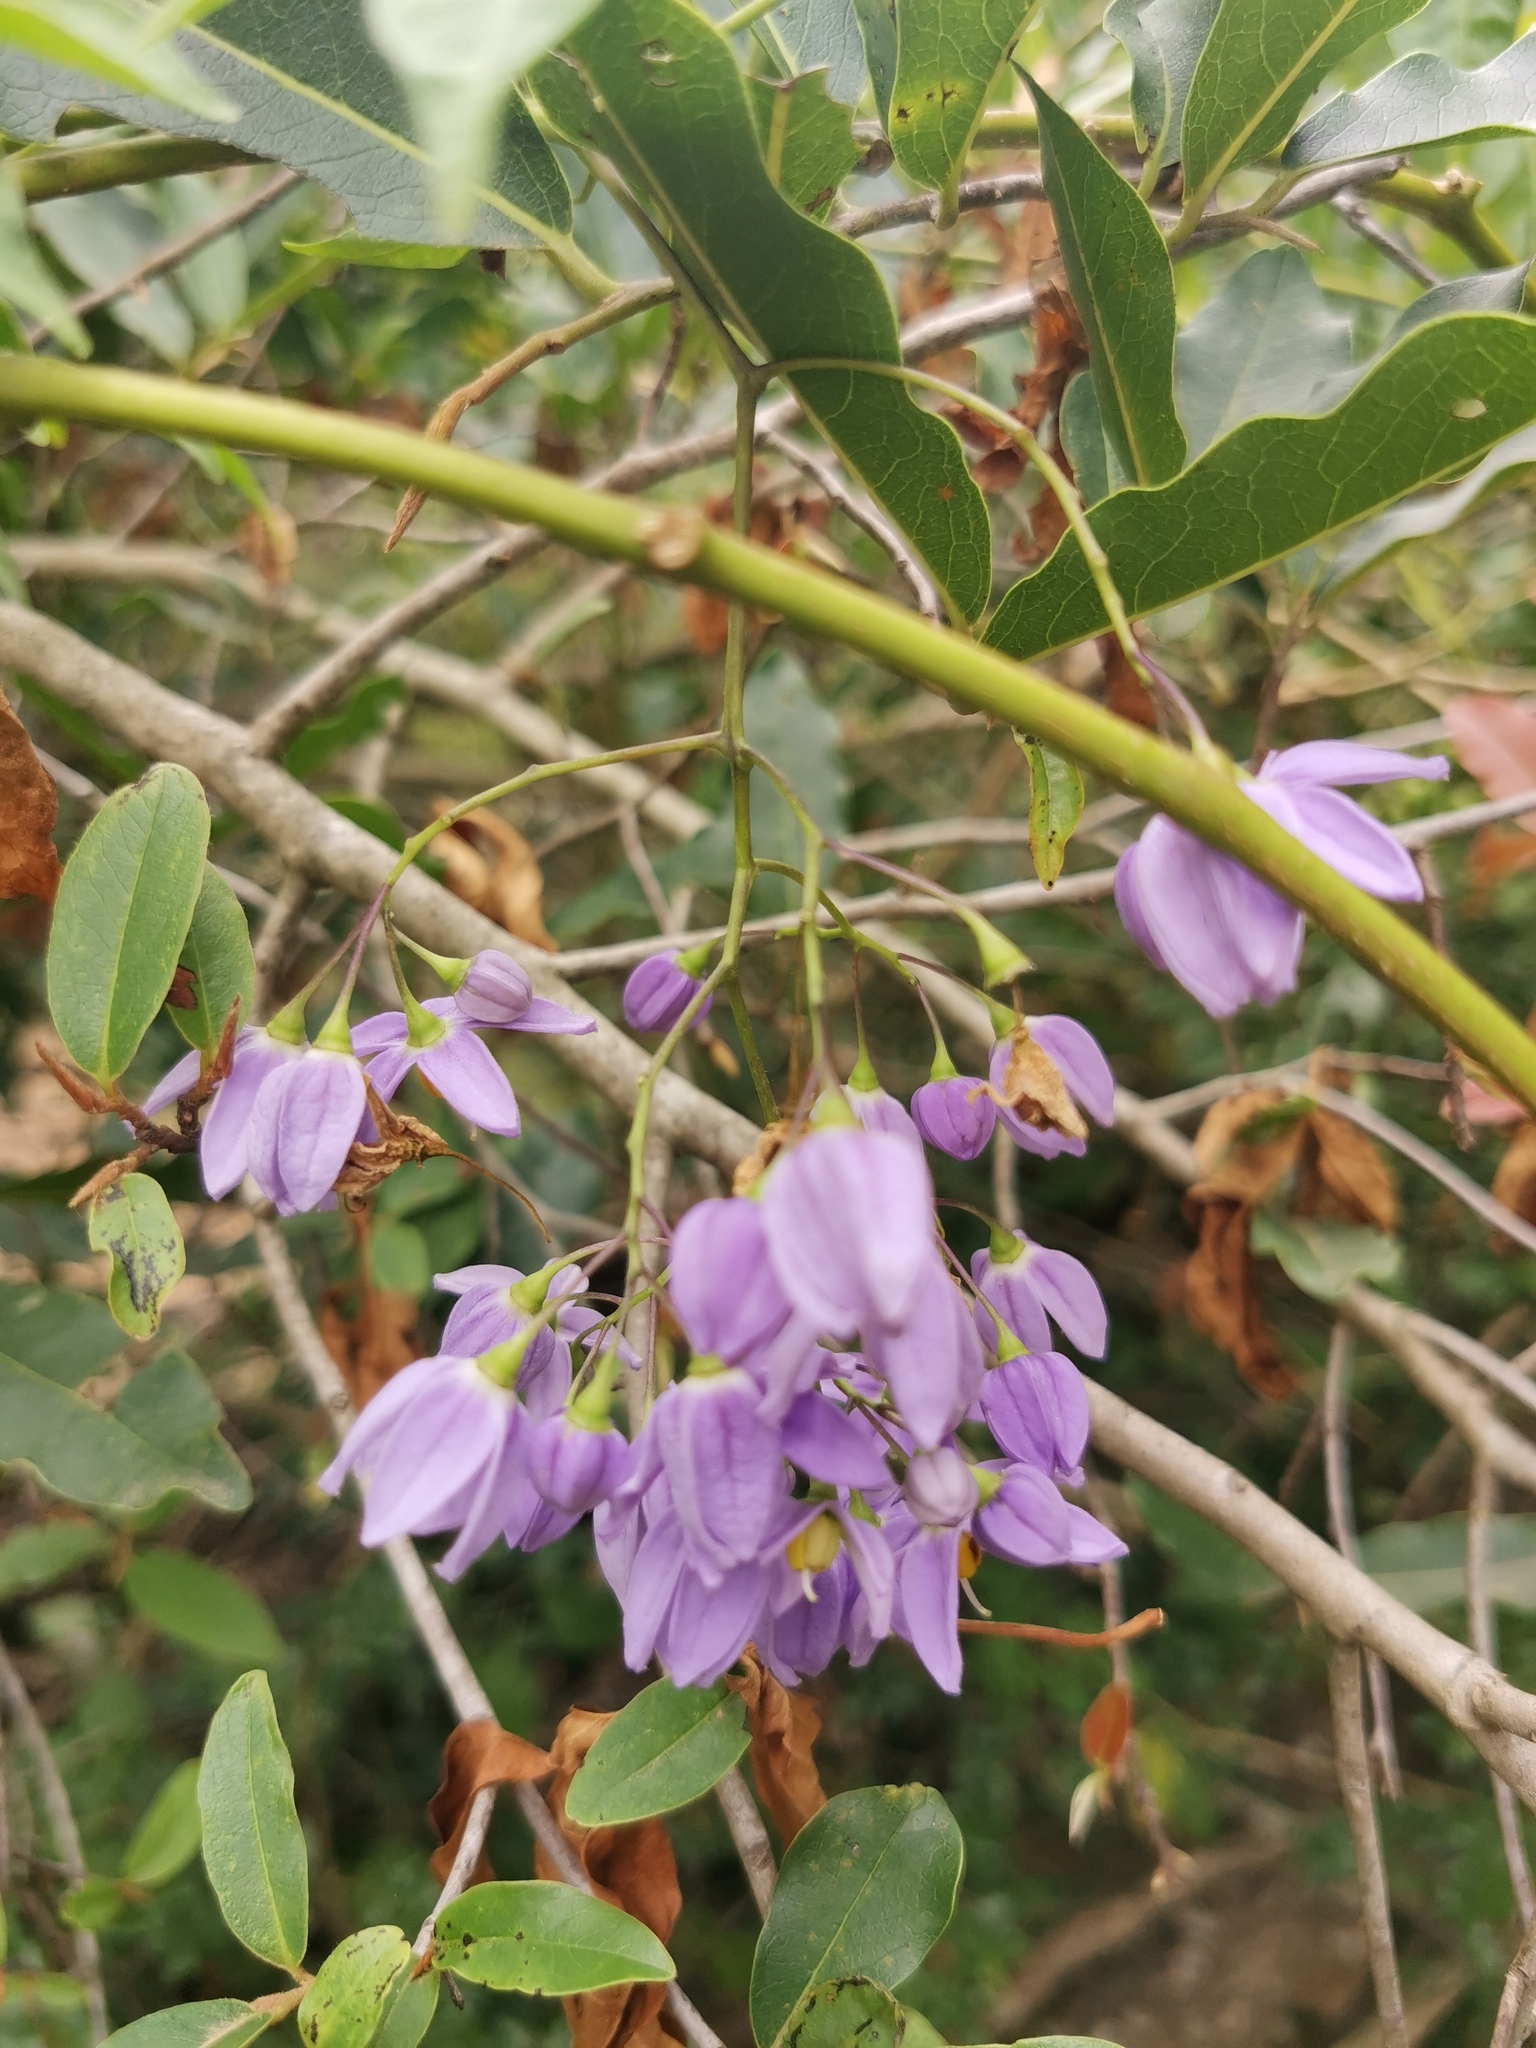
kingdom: Plantae
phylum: Tracheophyta
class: Magnoliopsida
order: Solanales
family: Solanaceae
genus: Solanum
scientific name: Solanum seaforthianum
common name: Brazilian nightshade
